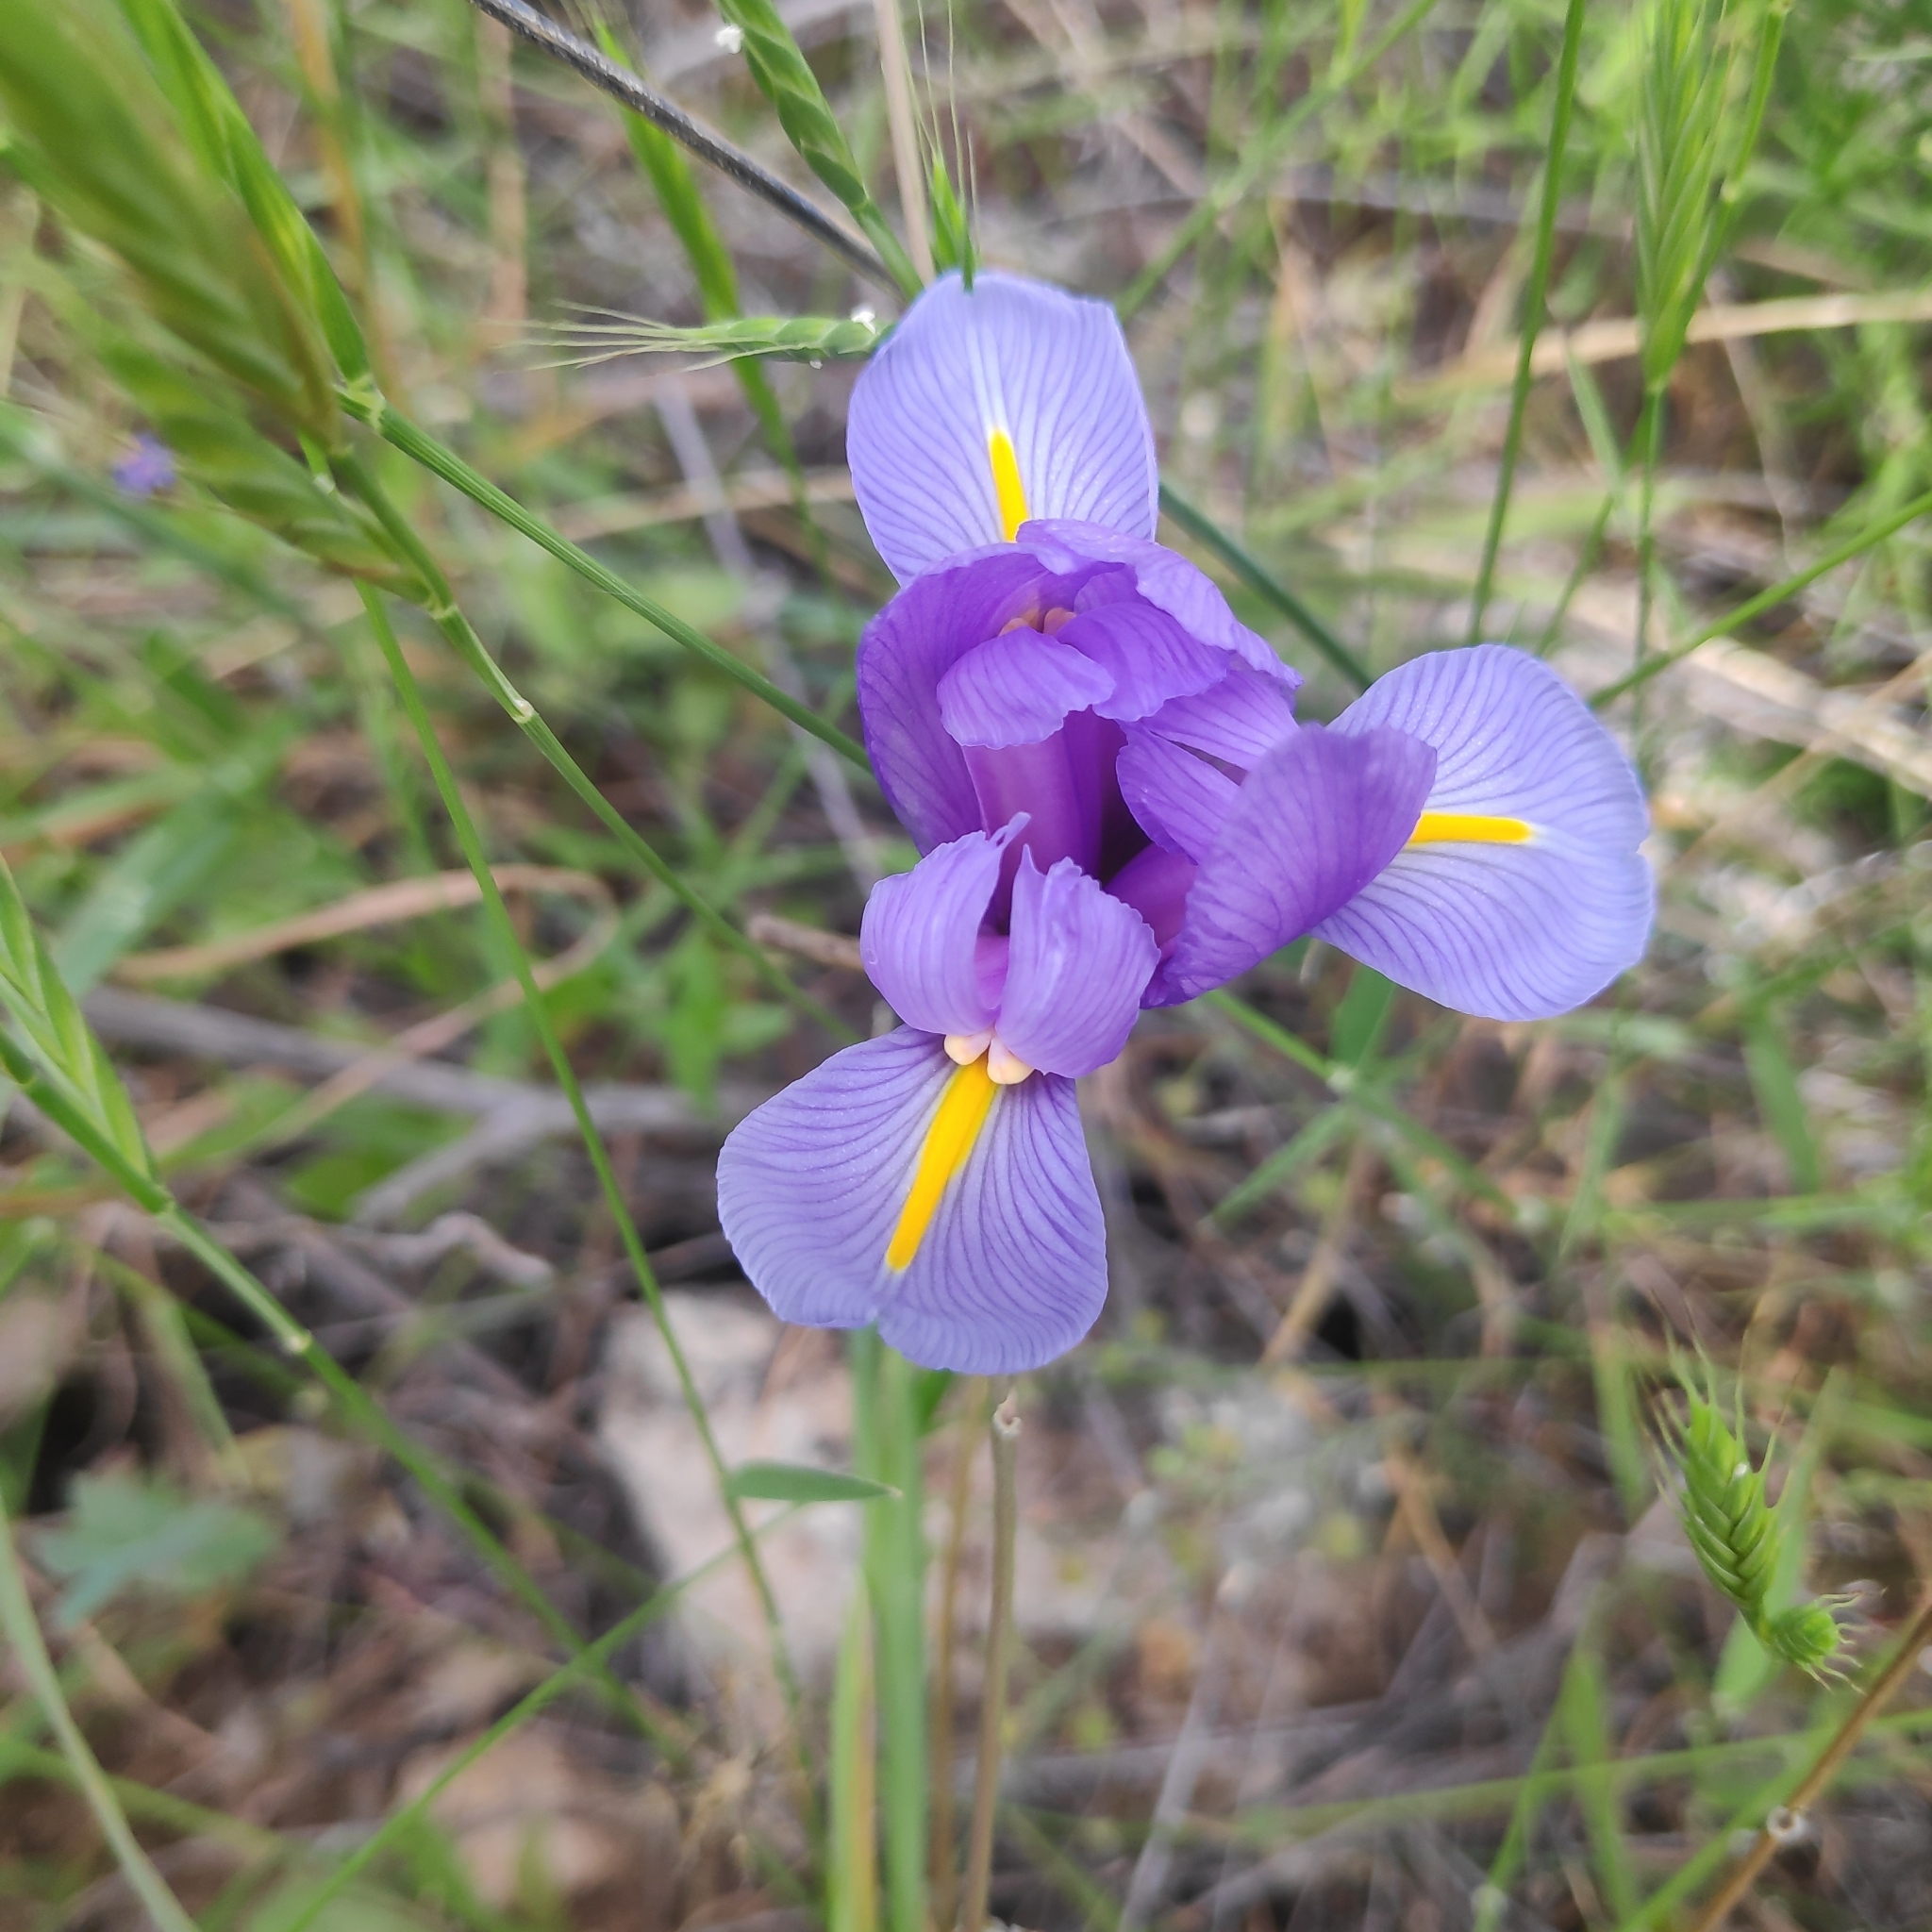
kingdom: Plantae
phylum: Tracheophyta
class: Liliopsida
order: Asparagales
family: Iridaceae
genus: Iris
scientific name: Iris xiphium
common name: Spanish iris
